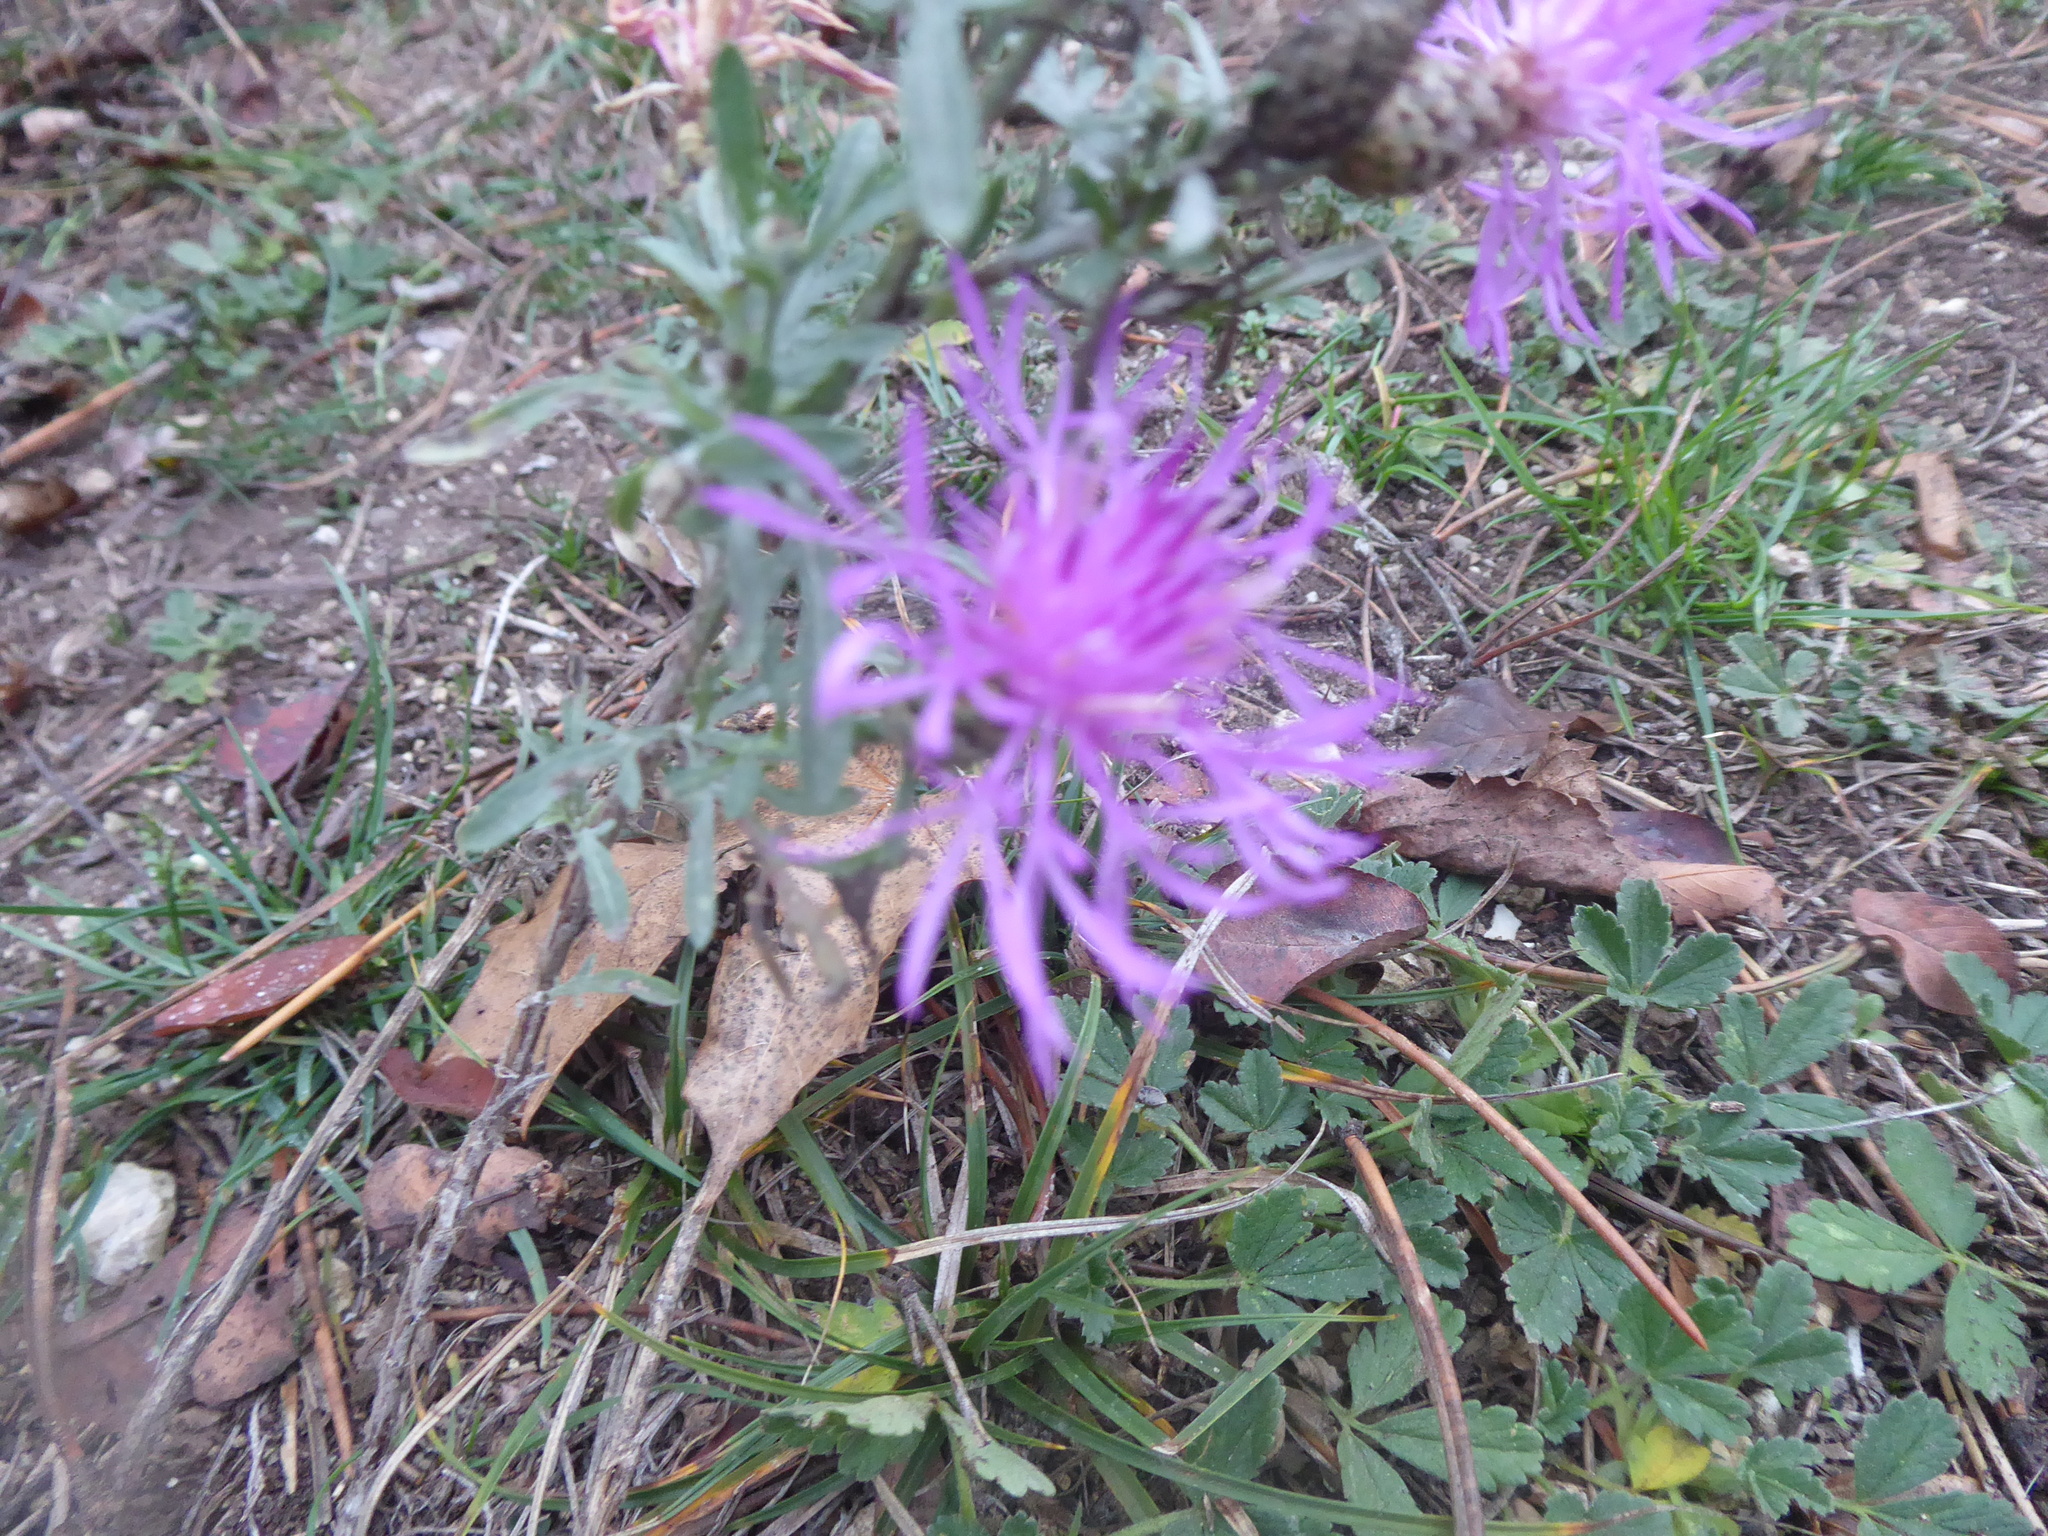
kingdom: Plantae
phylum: Tracheophyta
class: Magnoliopsida
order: Asterales
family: Asteraceae
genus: Centaurea
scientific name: Centaurea stoebe
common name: Spotted knapweed
